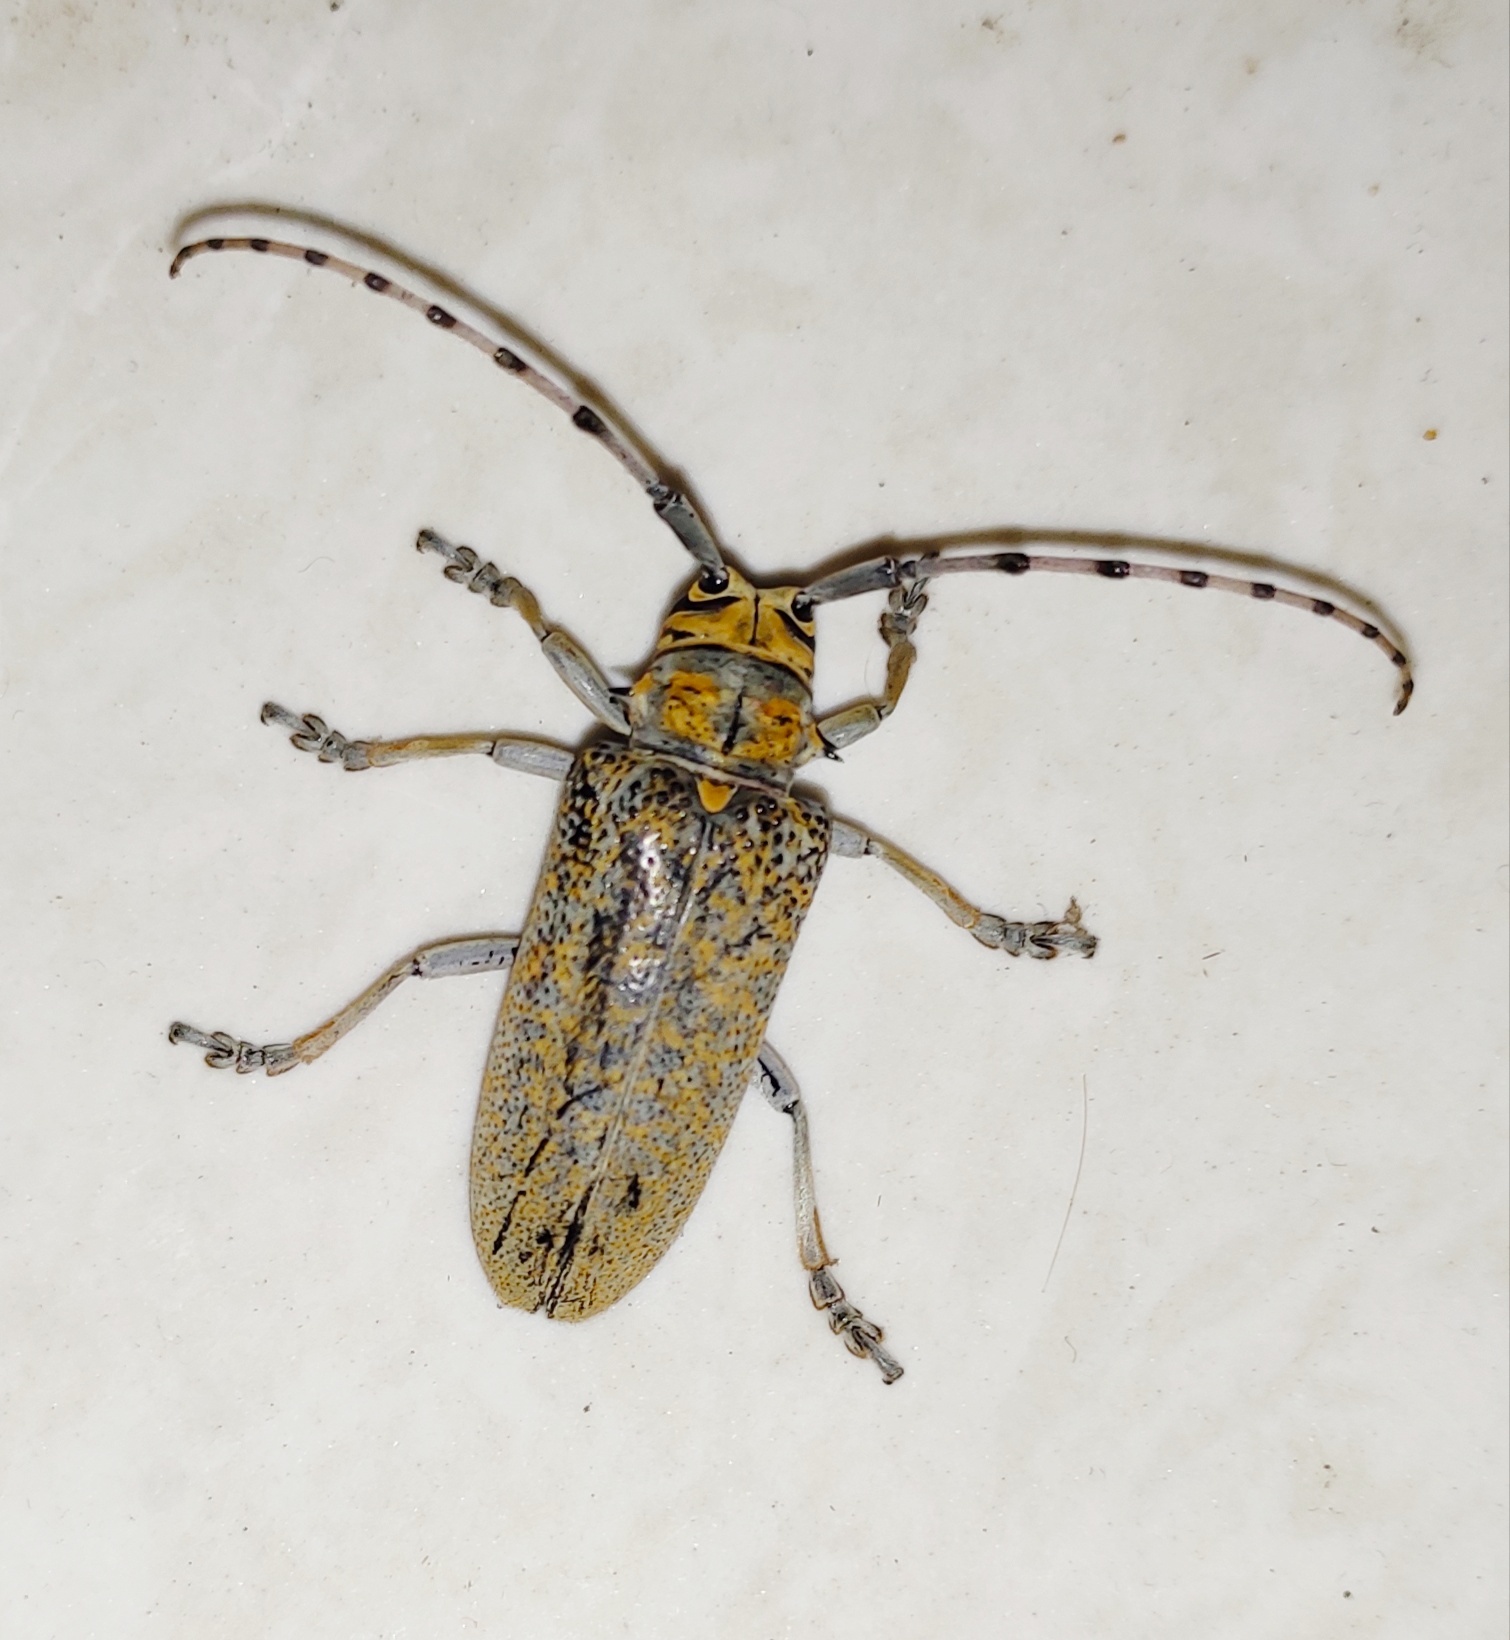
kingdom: Animalia
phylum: Arthropoda
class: Insecta
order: Coleoptera
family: Cerambycidae
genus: Cerosterna
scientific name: Cerosterna scabrator
